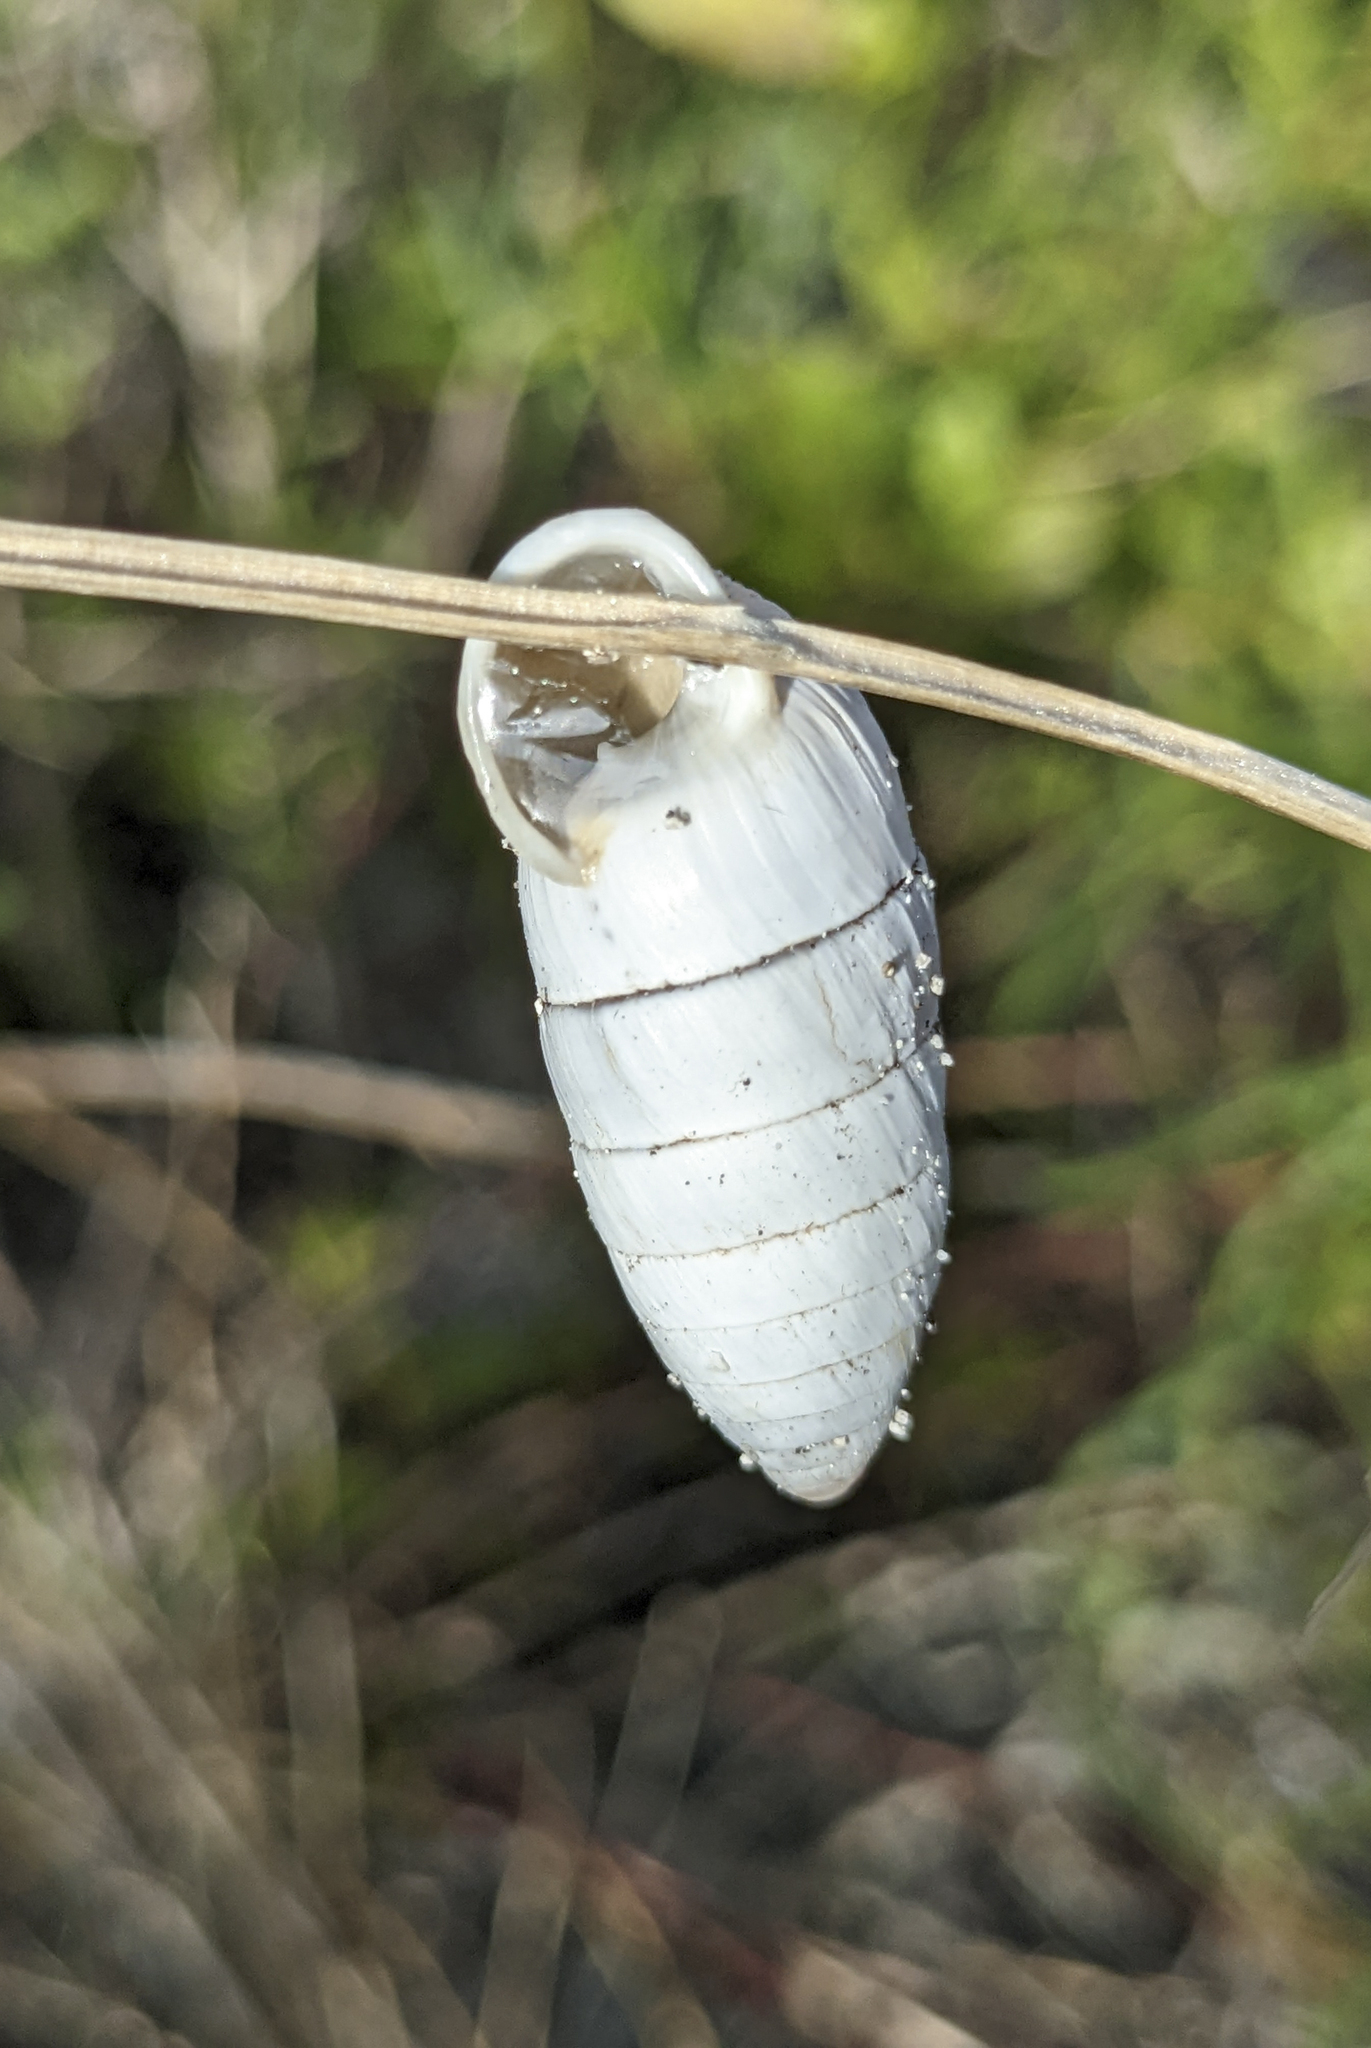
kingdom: Animalia
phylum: Mollusca
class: Gastropoda
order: Stylommatophora
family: Cerionidae
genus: Cerion
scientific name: Cerion incanum
